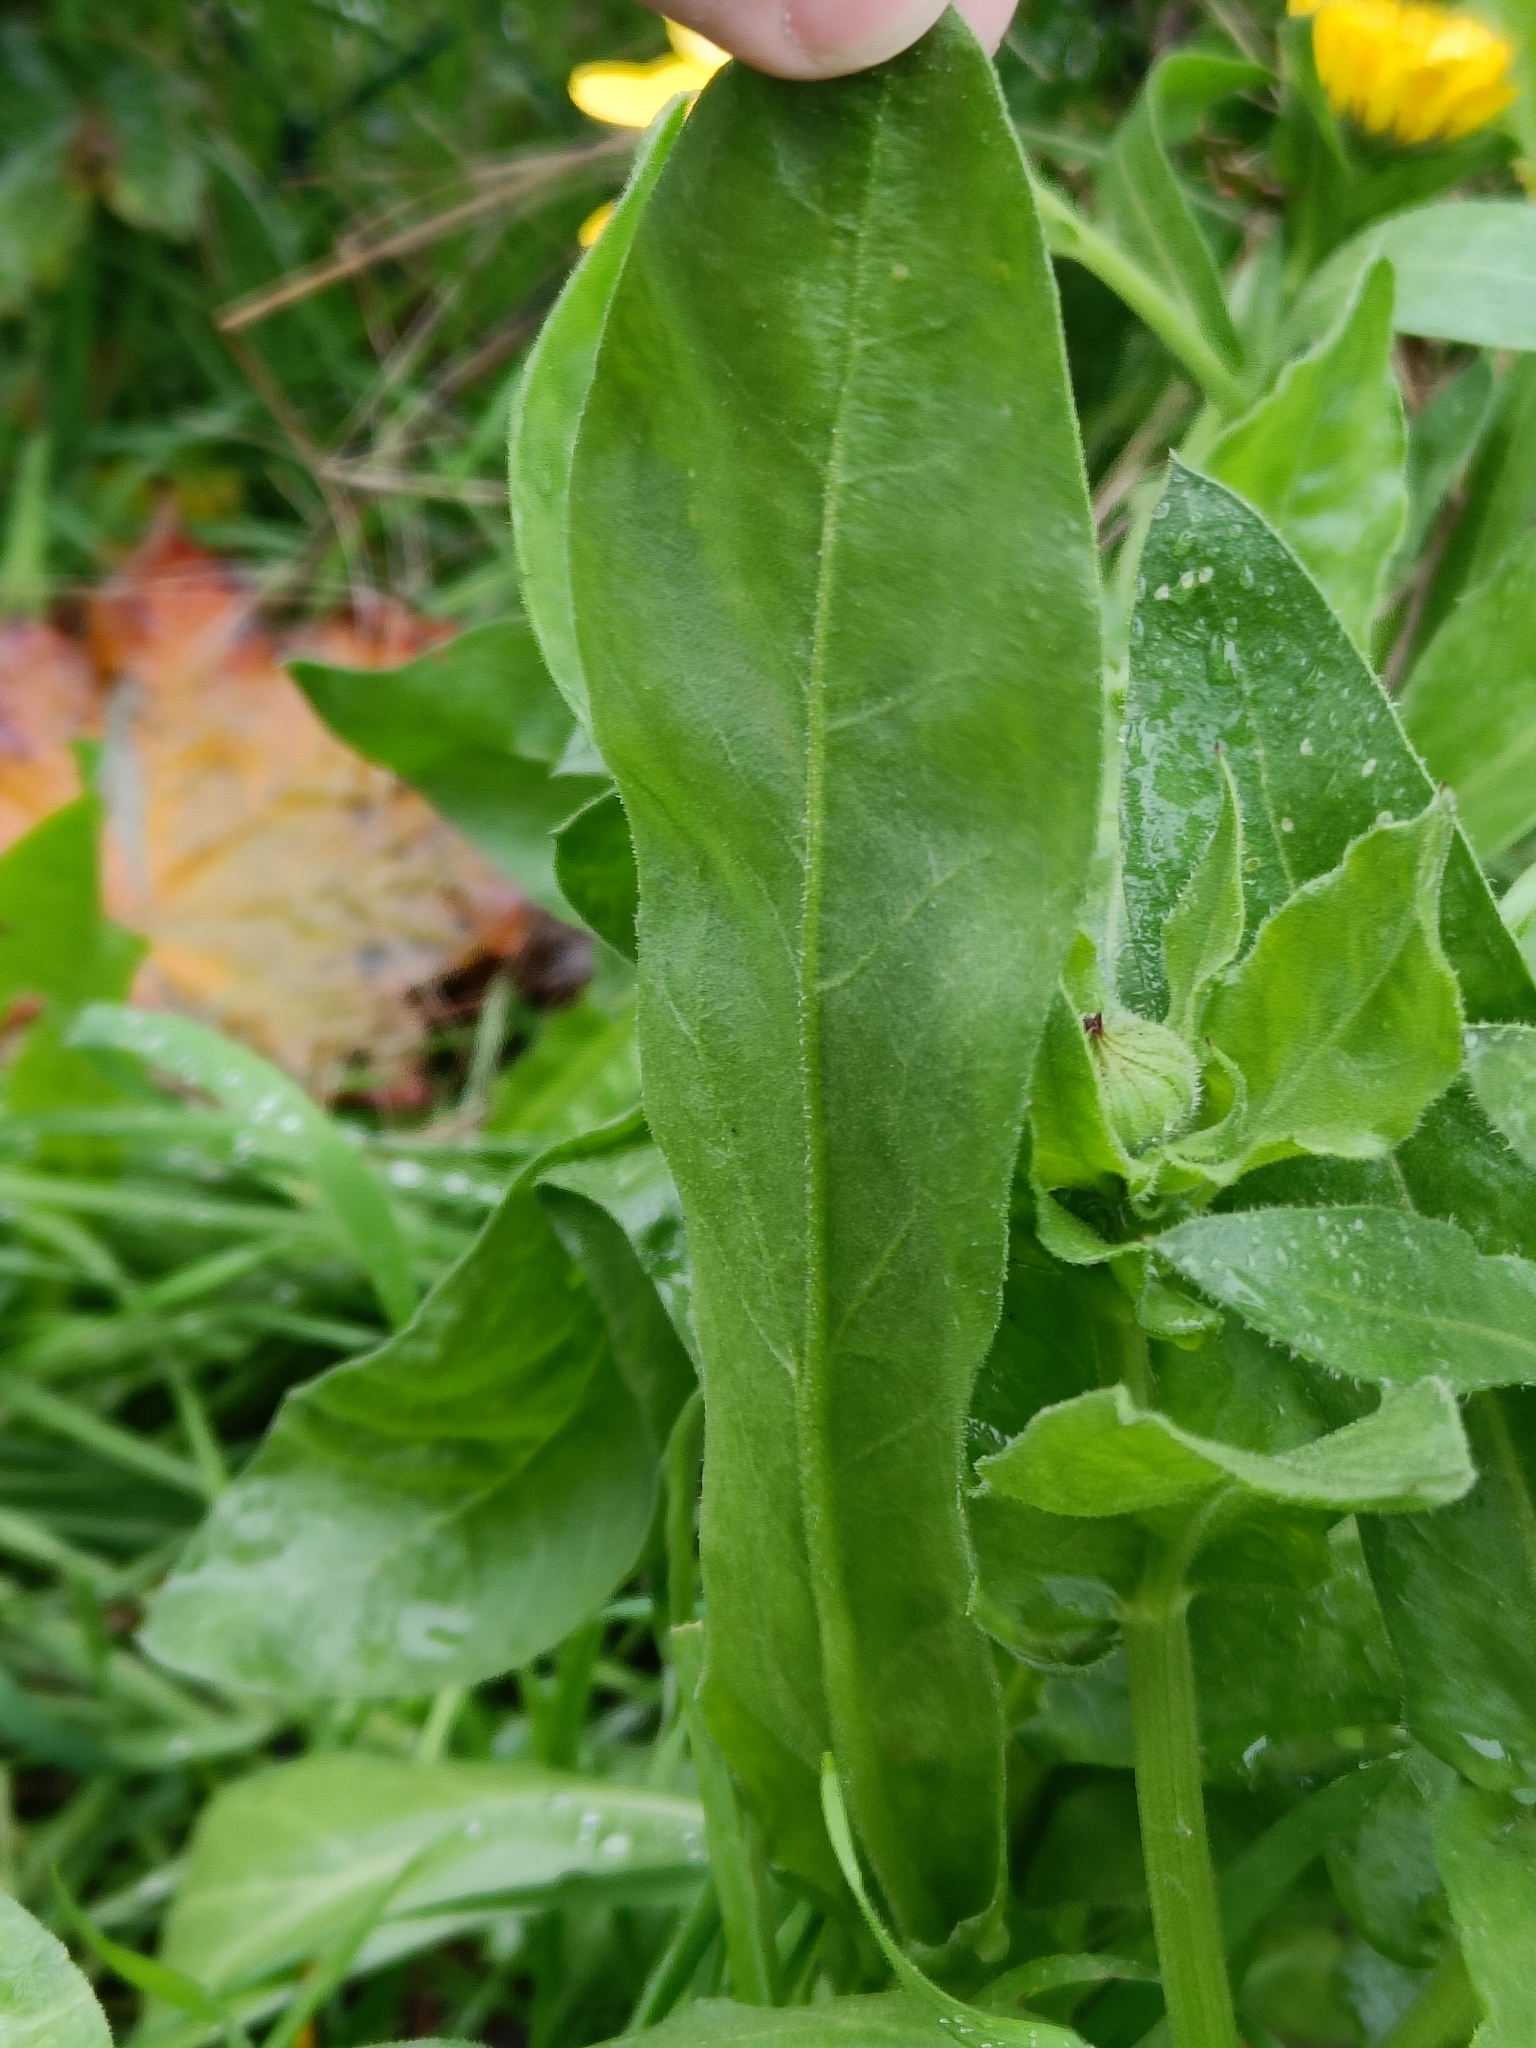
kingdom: Plantae
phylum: Tracheophyta
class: Magnoliopsida
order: Asterales
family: Asteraceae
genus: Calendula
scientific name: Calendula officinalis
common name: Pot marigold
